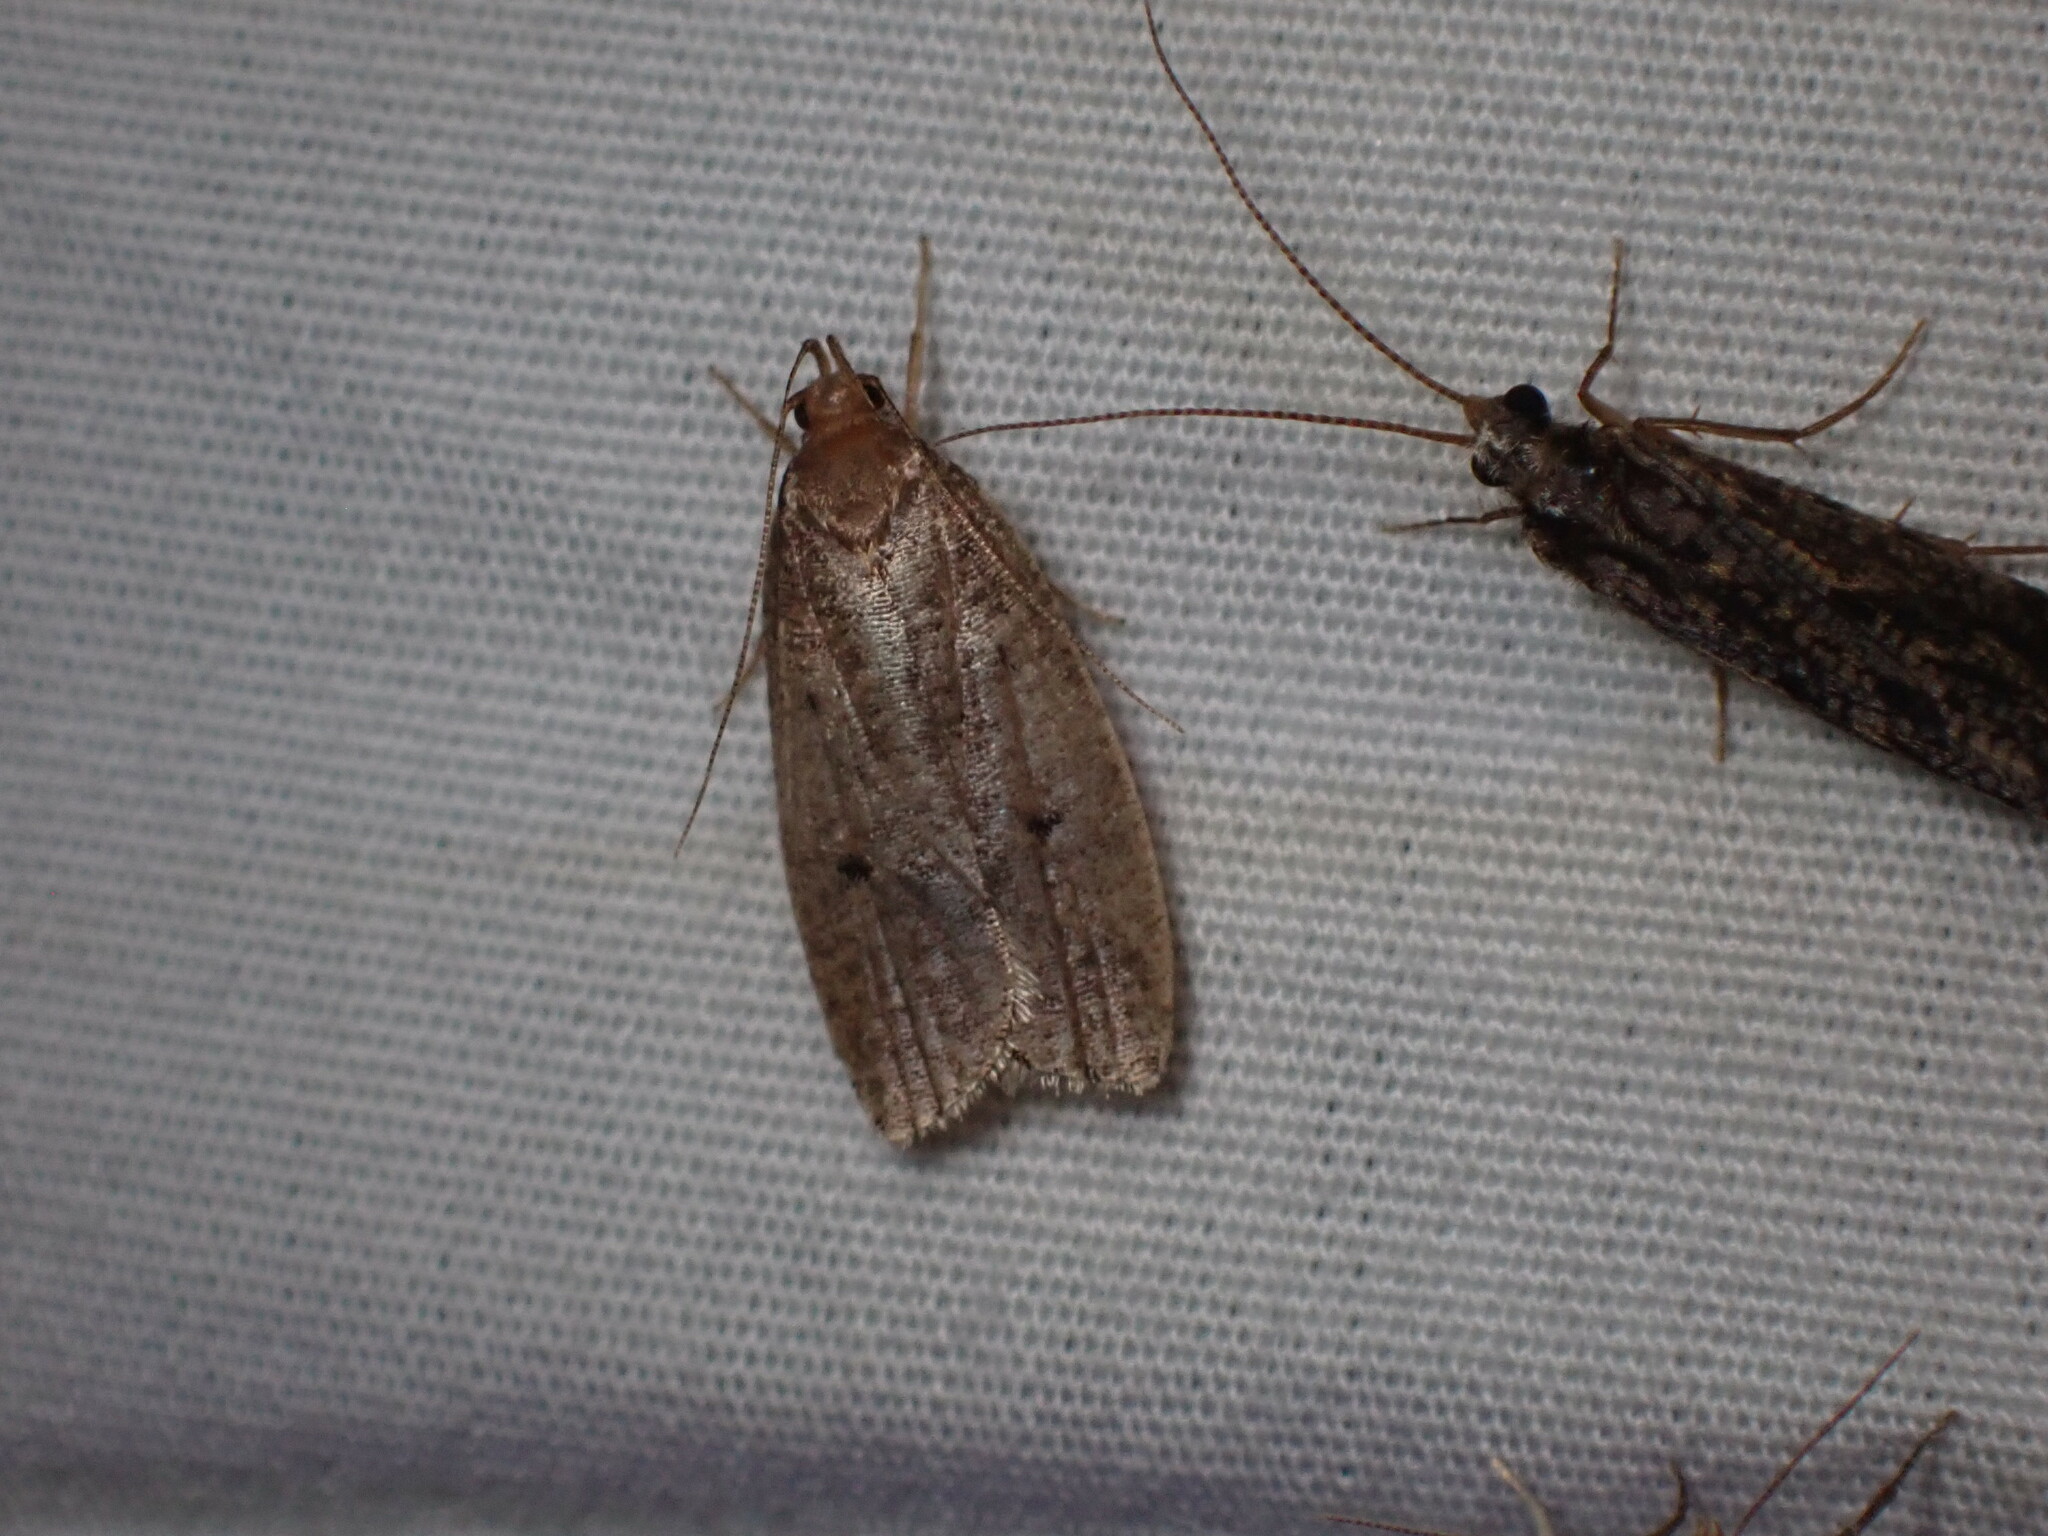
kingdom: Animalia
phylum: Arthropoda
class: Insecta
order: Lepidoptera
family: Depressariidae
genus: Psilocorsis
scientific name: Psilocorsis reflexella
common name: Dotted leaftier moth
